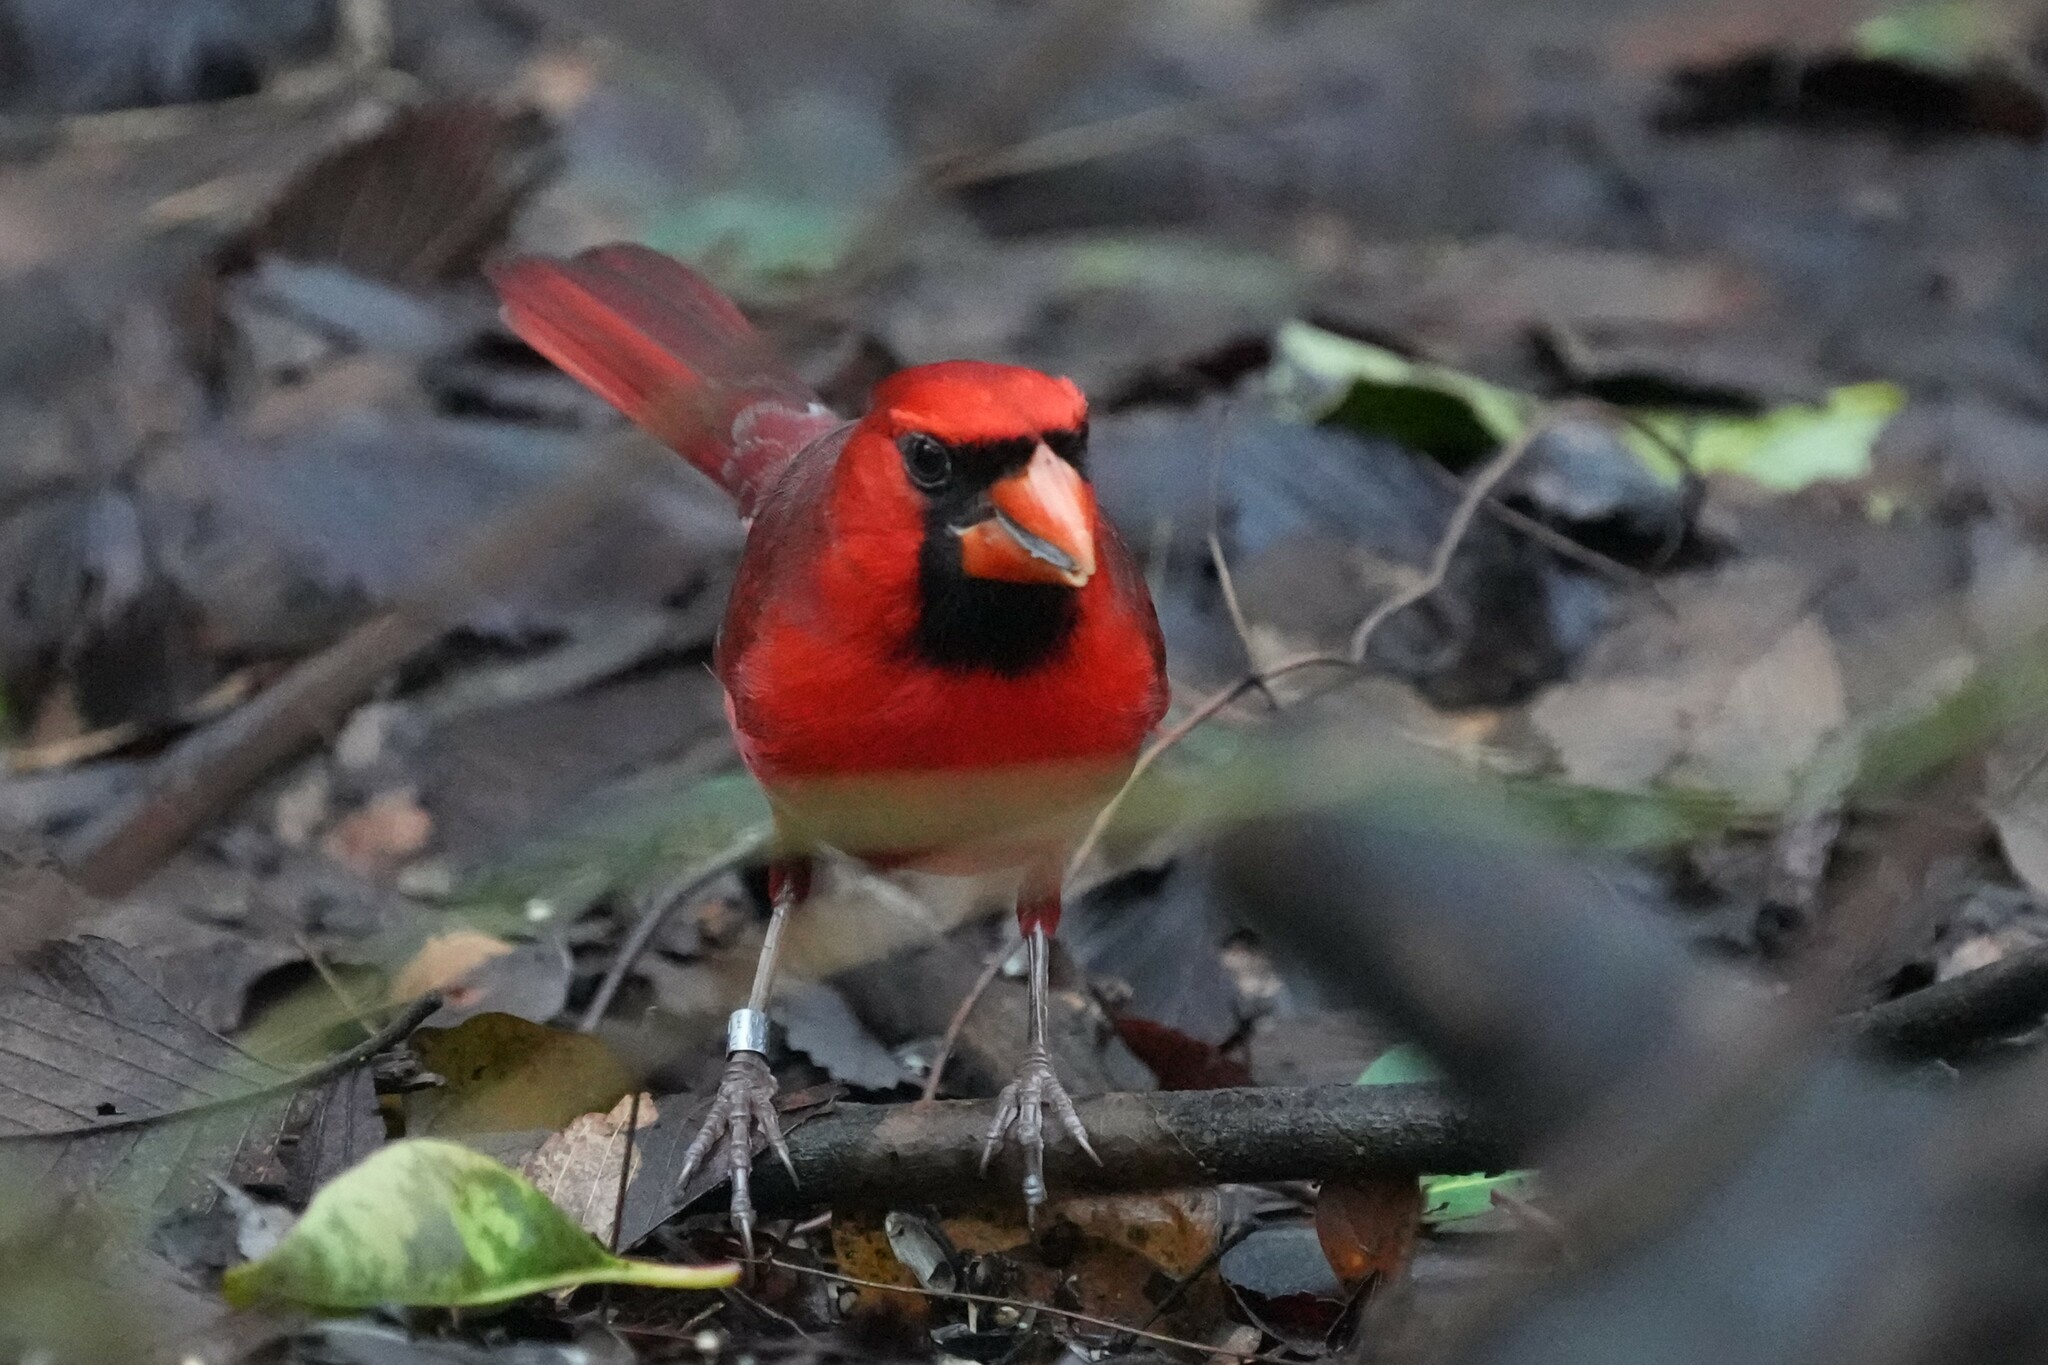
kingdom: Animalia
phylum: Chordata
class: Aves
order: Passeriformes
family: Cardinalidae
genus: Cardinalis
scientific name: Cardinalis cardinalis
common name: Northern cardinal
